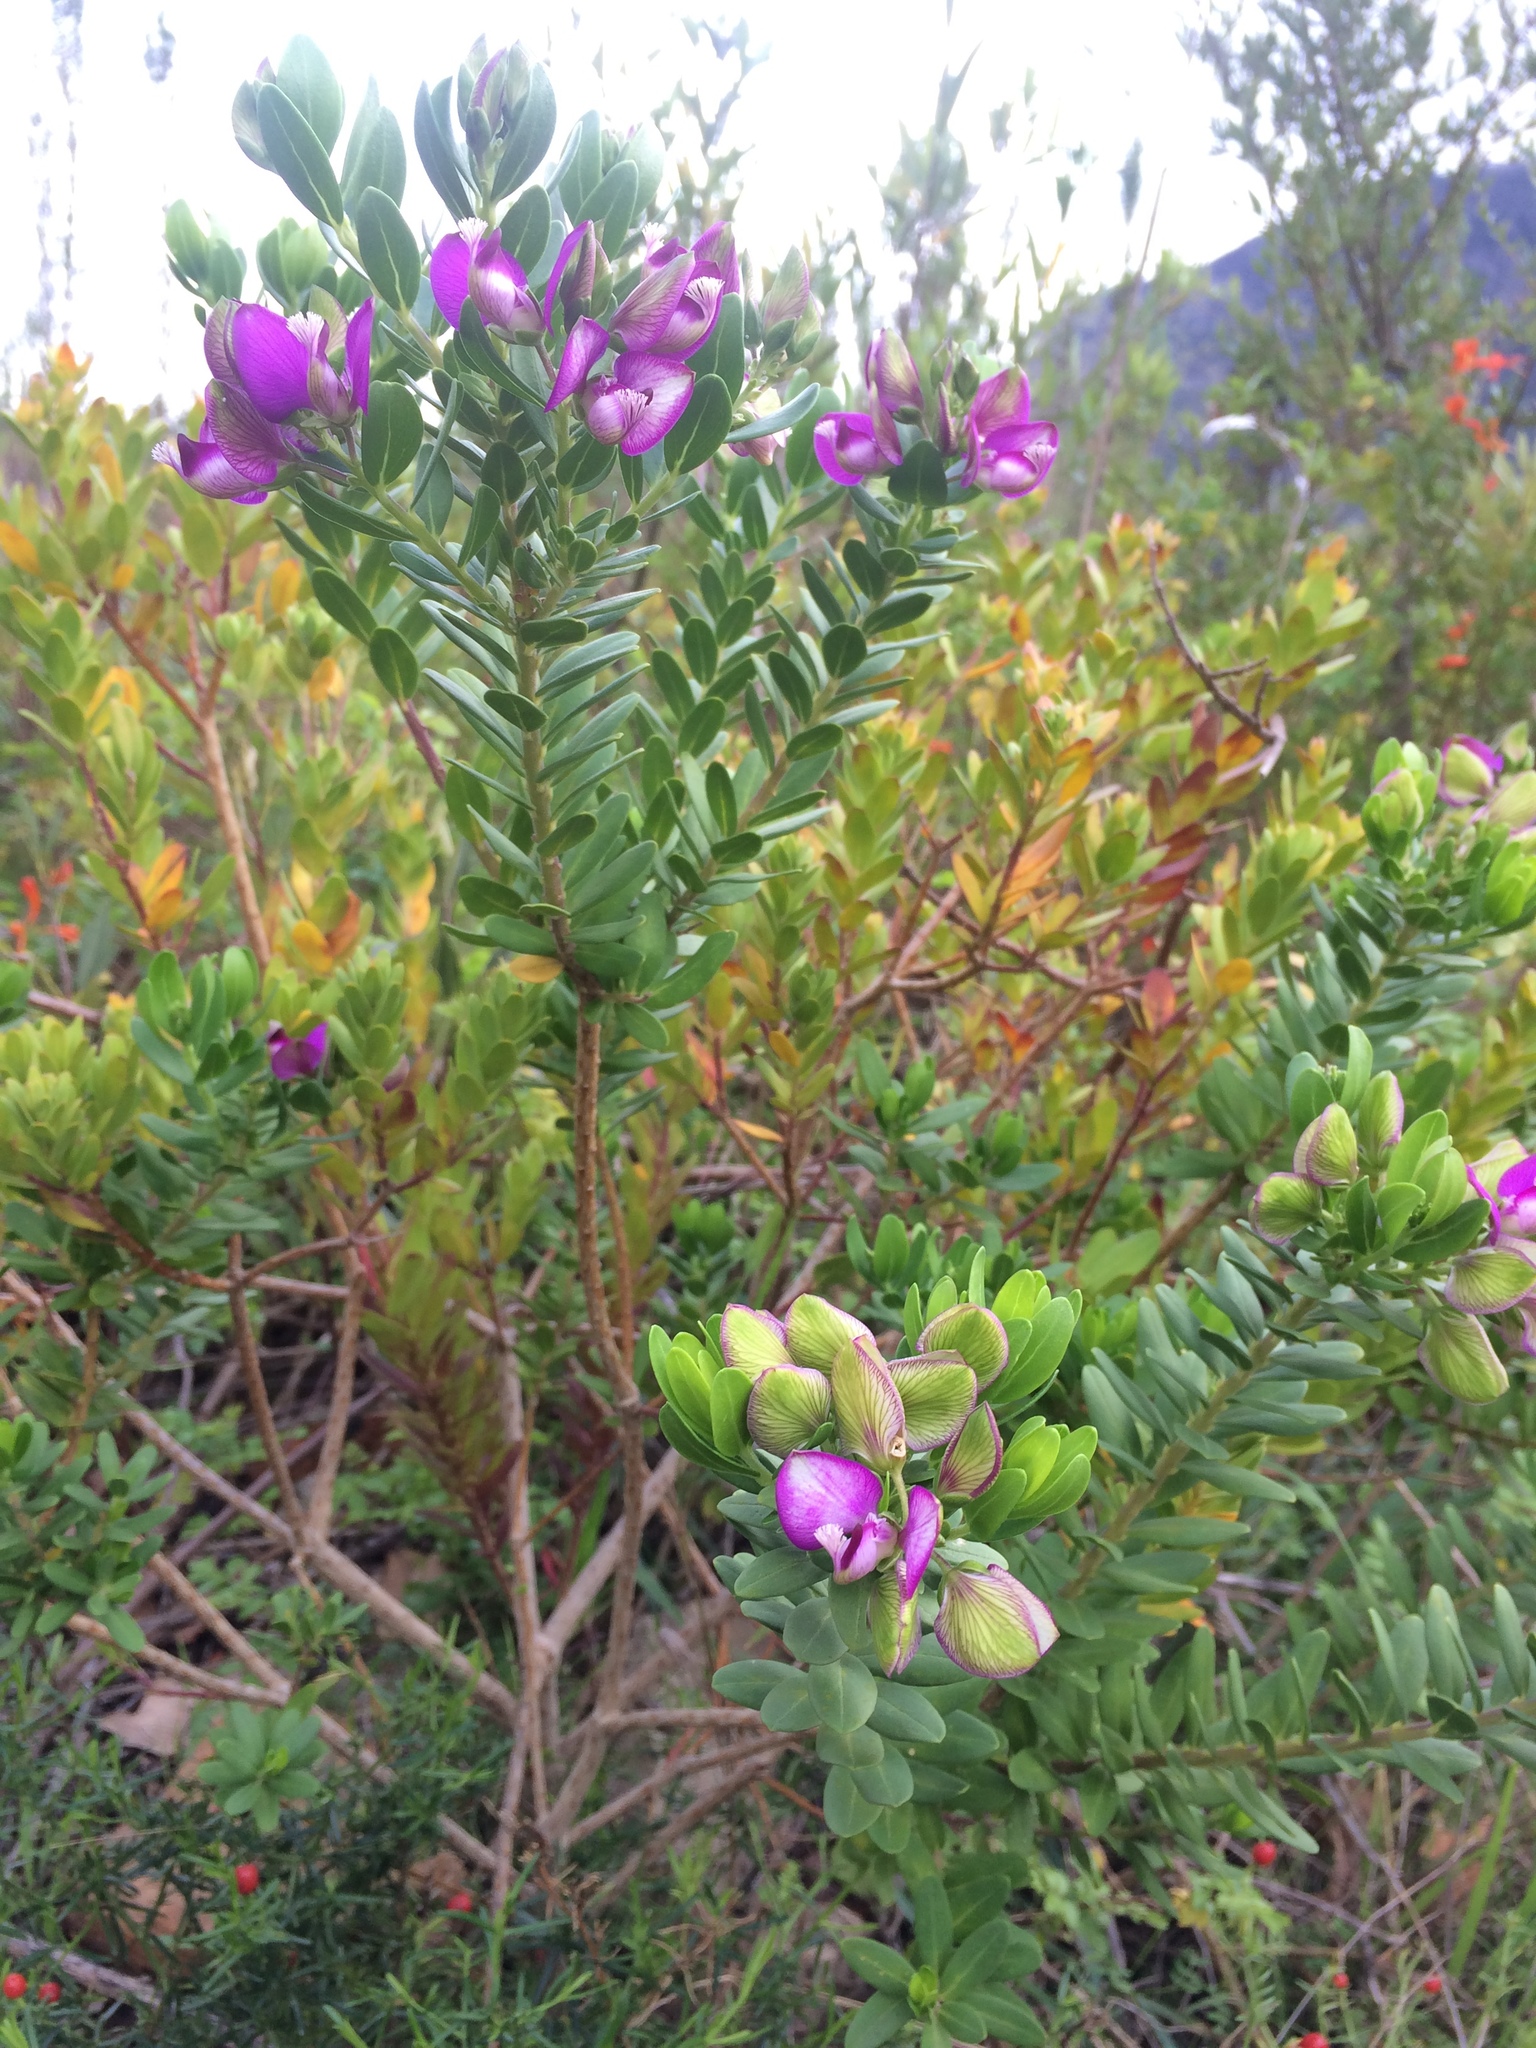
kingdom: Plantae
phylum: Tracheophyta
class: Magnoliopsida
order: Fabales
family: Polygalaceae
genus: Polygala
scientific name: Polygala myrtifolia
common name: Myrtle-leaf milkwort
